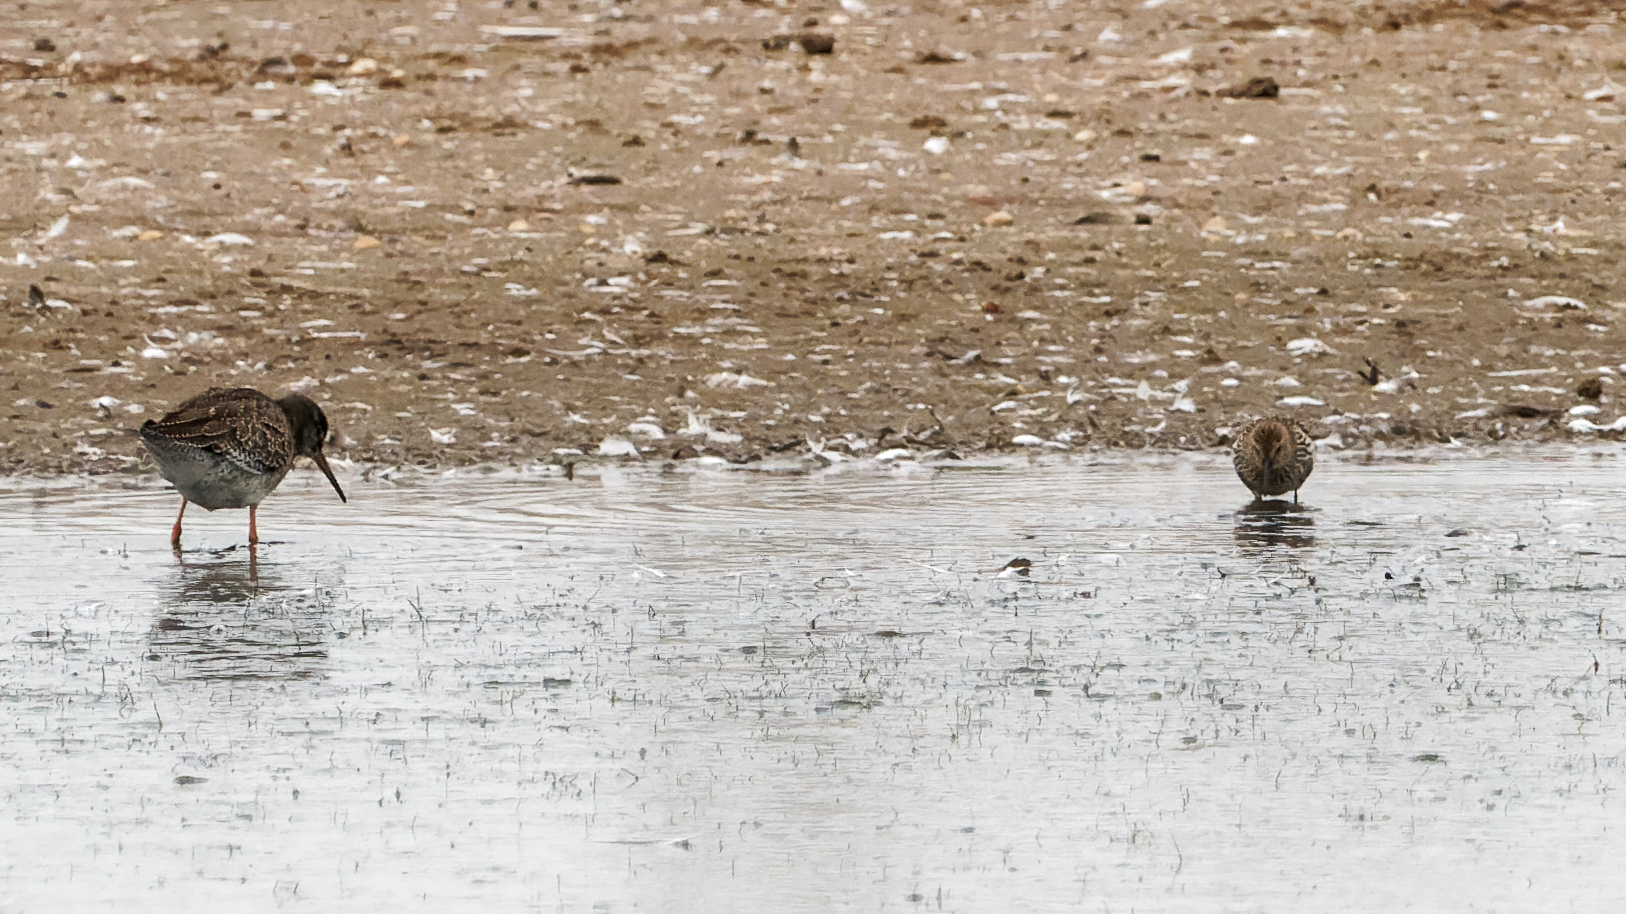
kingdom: Animalia
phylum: Chordata
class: Aves
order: Charadriiformes
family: Scolopacidae
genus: Tringa
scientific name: Tringa totanus
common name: Common redshank
